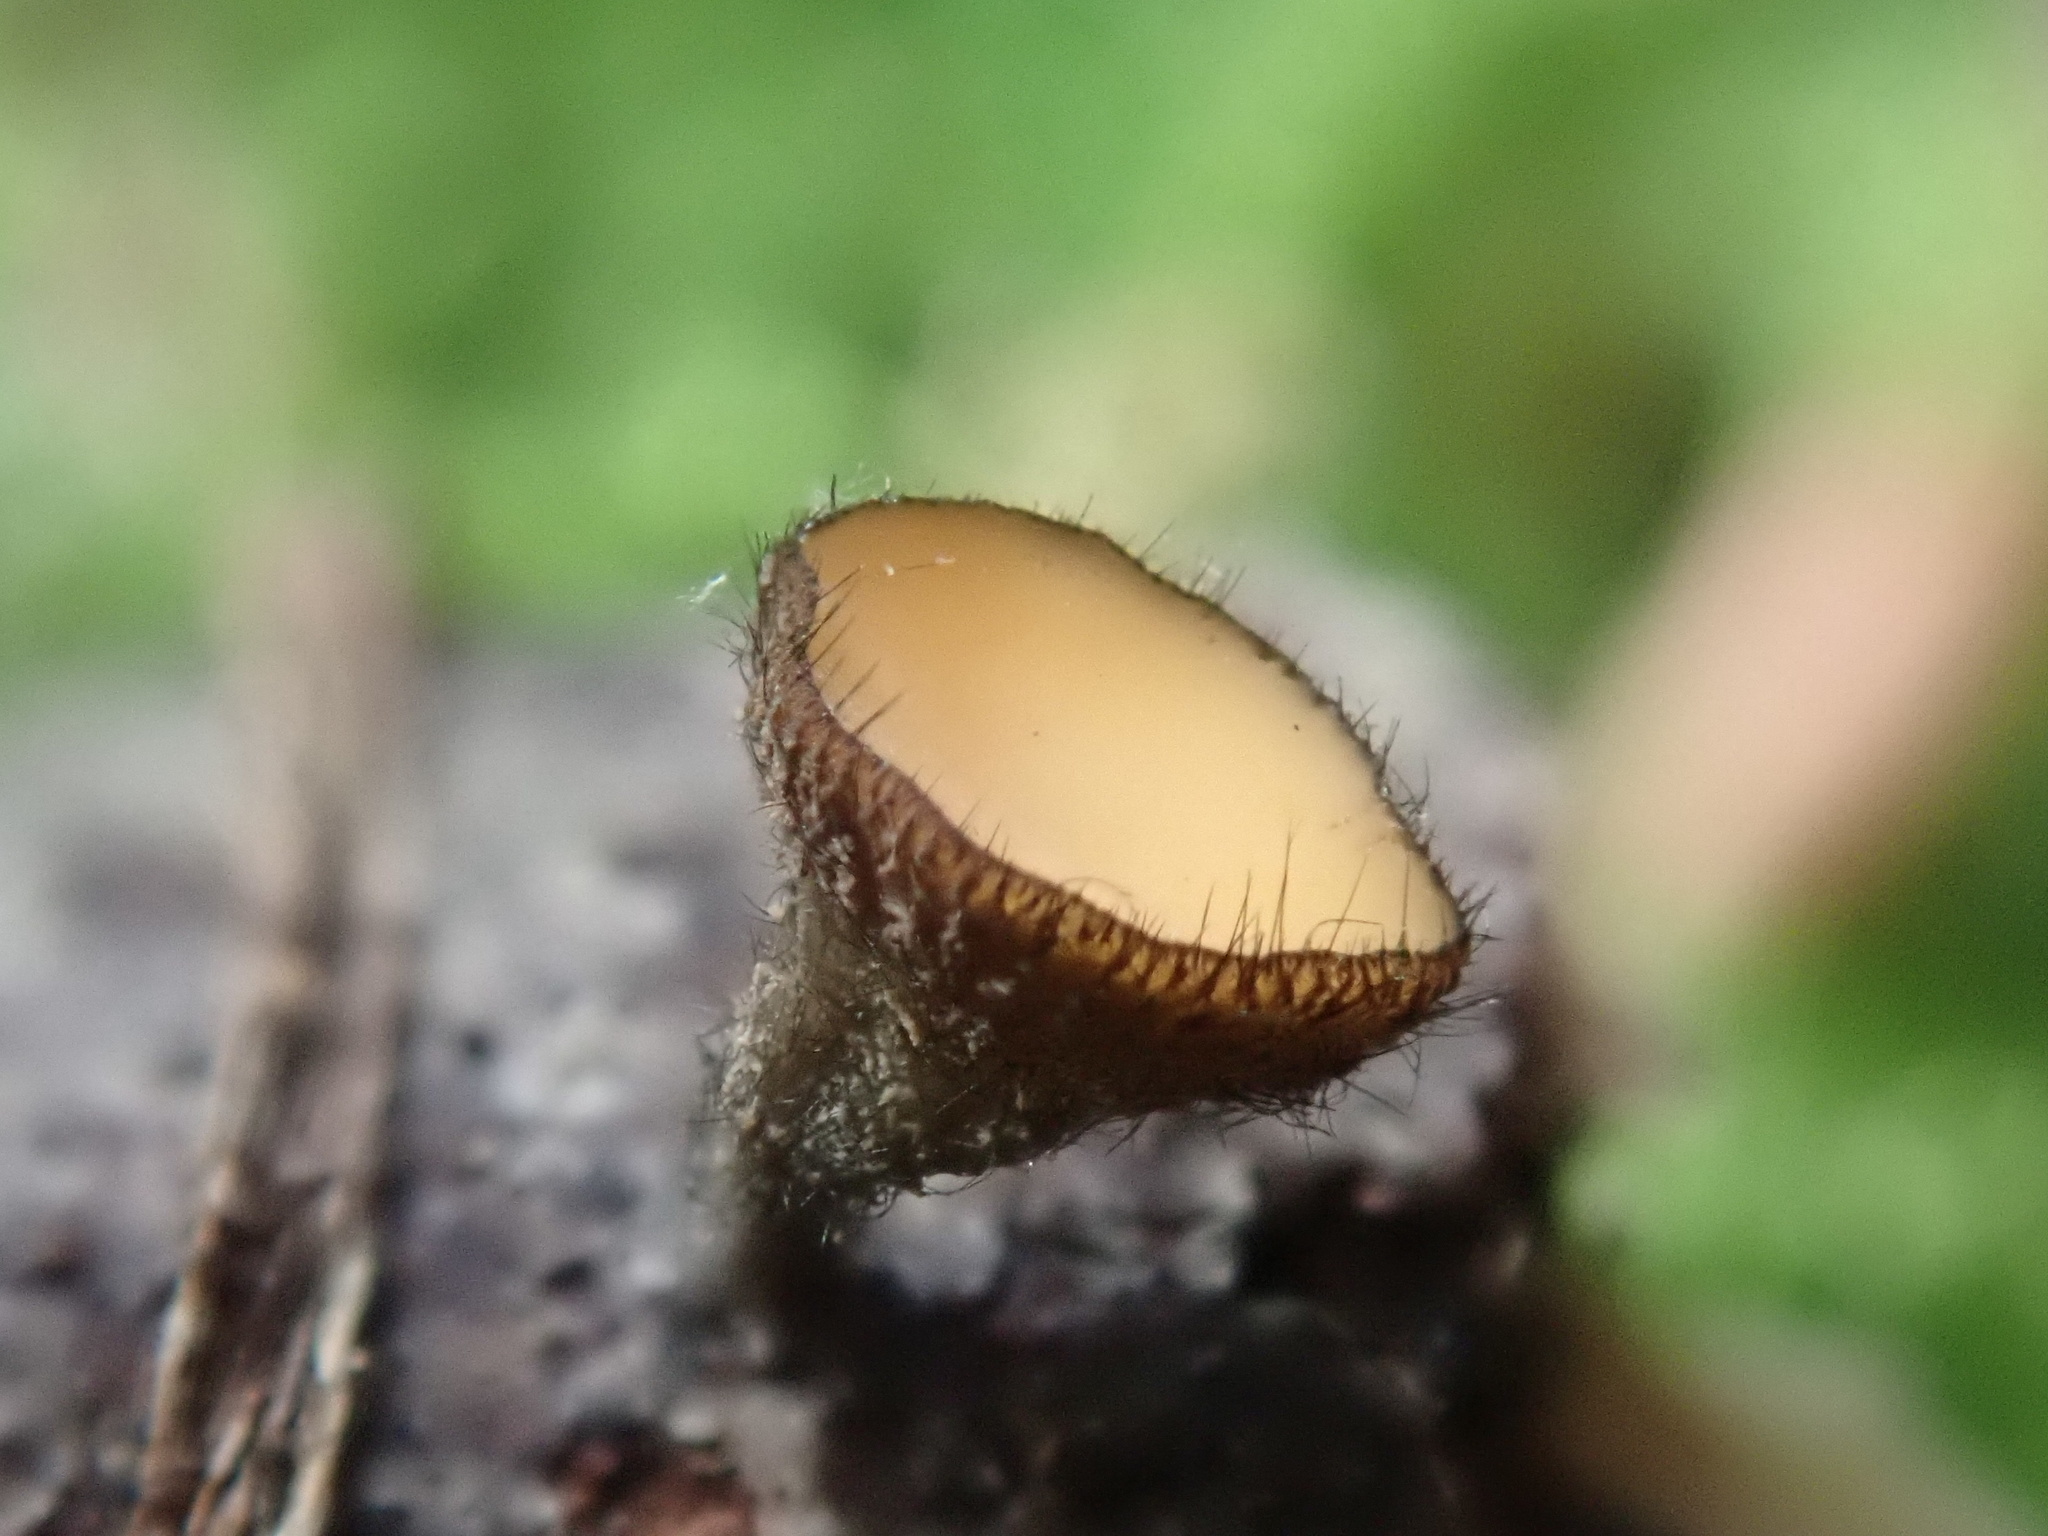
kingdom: Fungi
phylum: Ascomycota
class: Leotiomycetes
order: Helotiales
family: Helotiaceae
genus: Hymenotorrendiella
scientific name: Hymenotorrendiella clelandii
